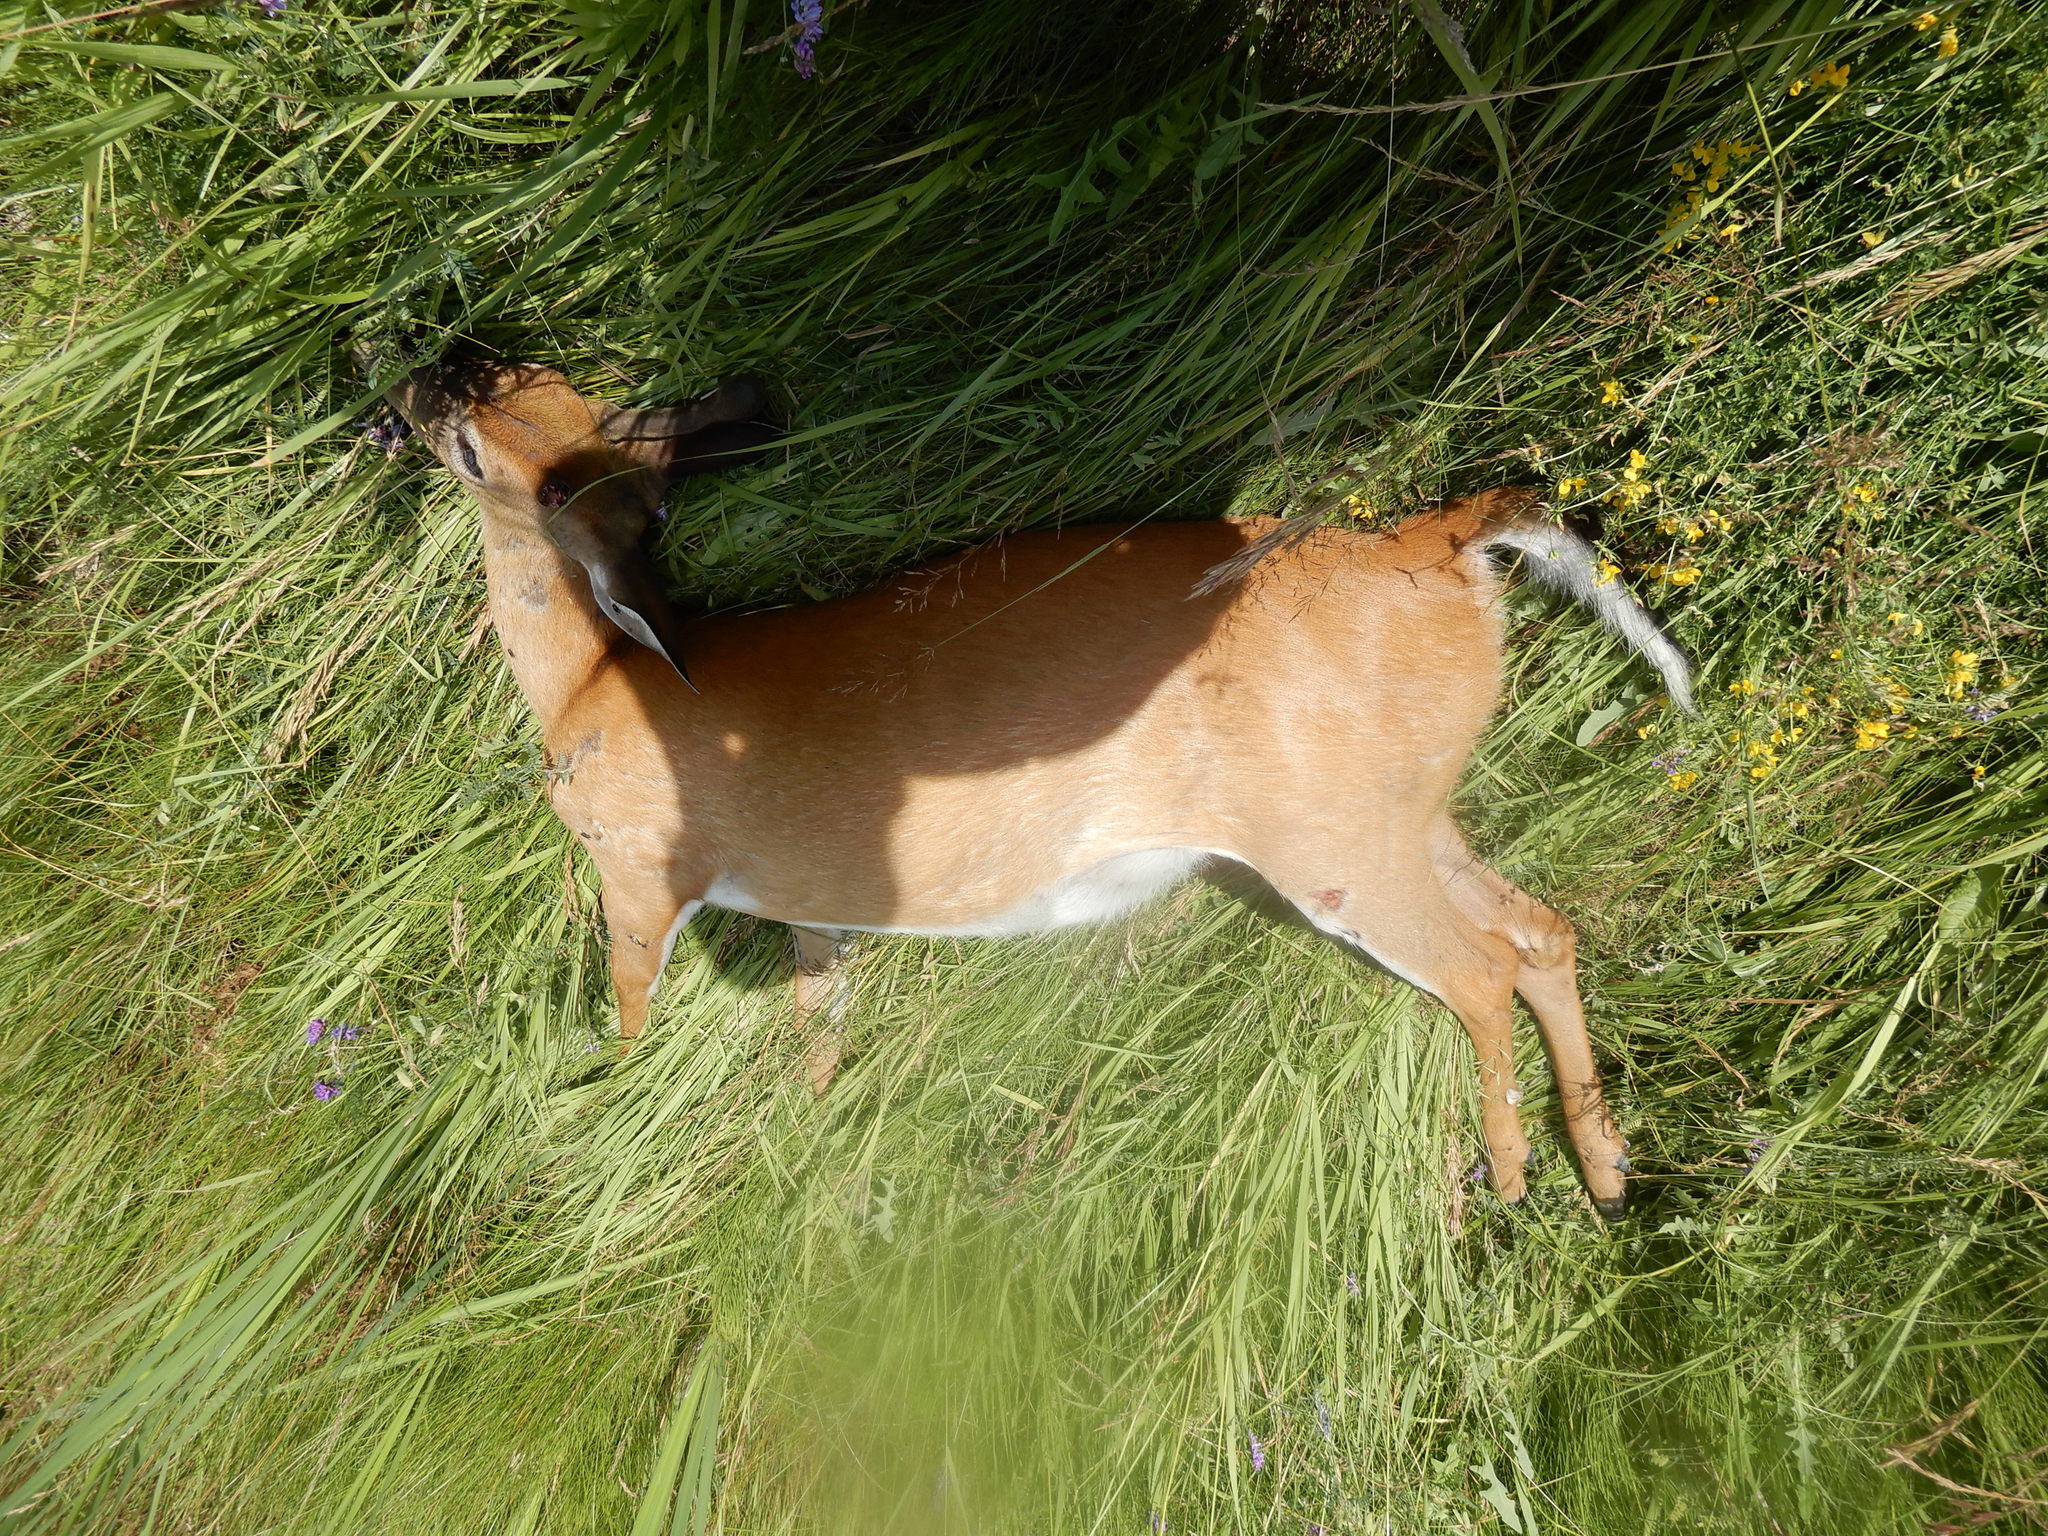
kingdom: Animalia
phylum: Chordata
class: Mammalia
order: Artiodactyla
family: Cervidae
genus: Odocoileus
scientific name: Odocoileus virginianus
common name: White-tailed deer
